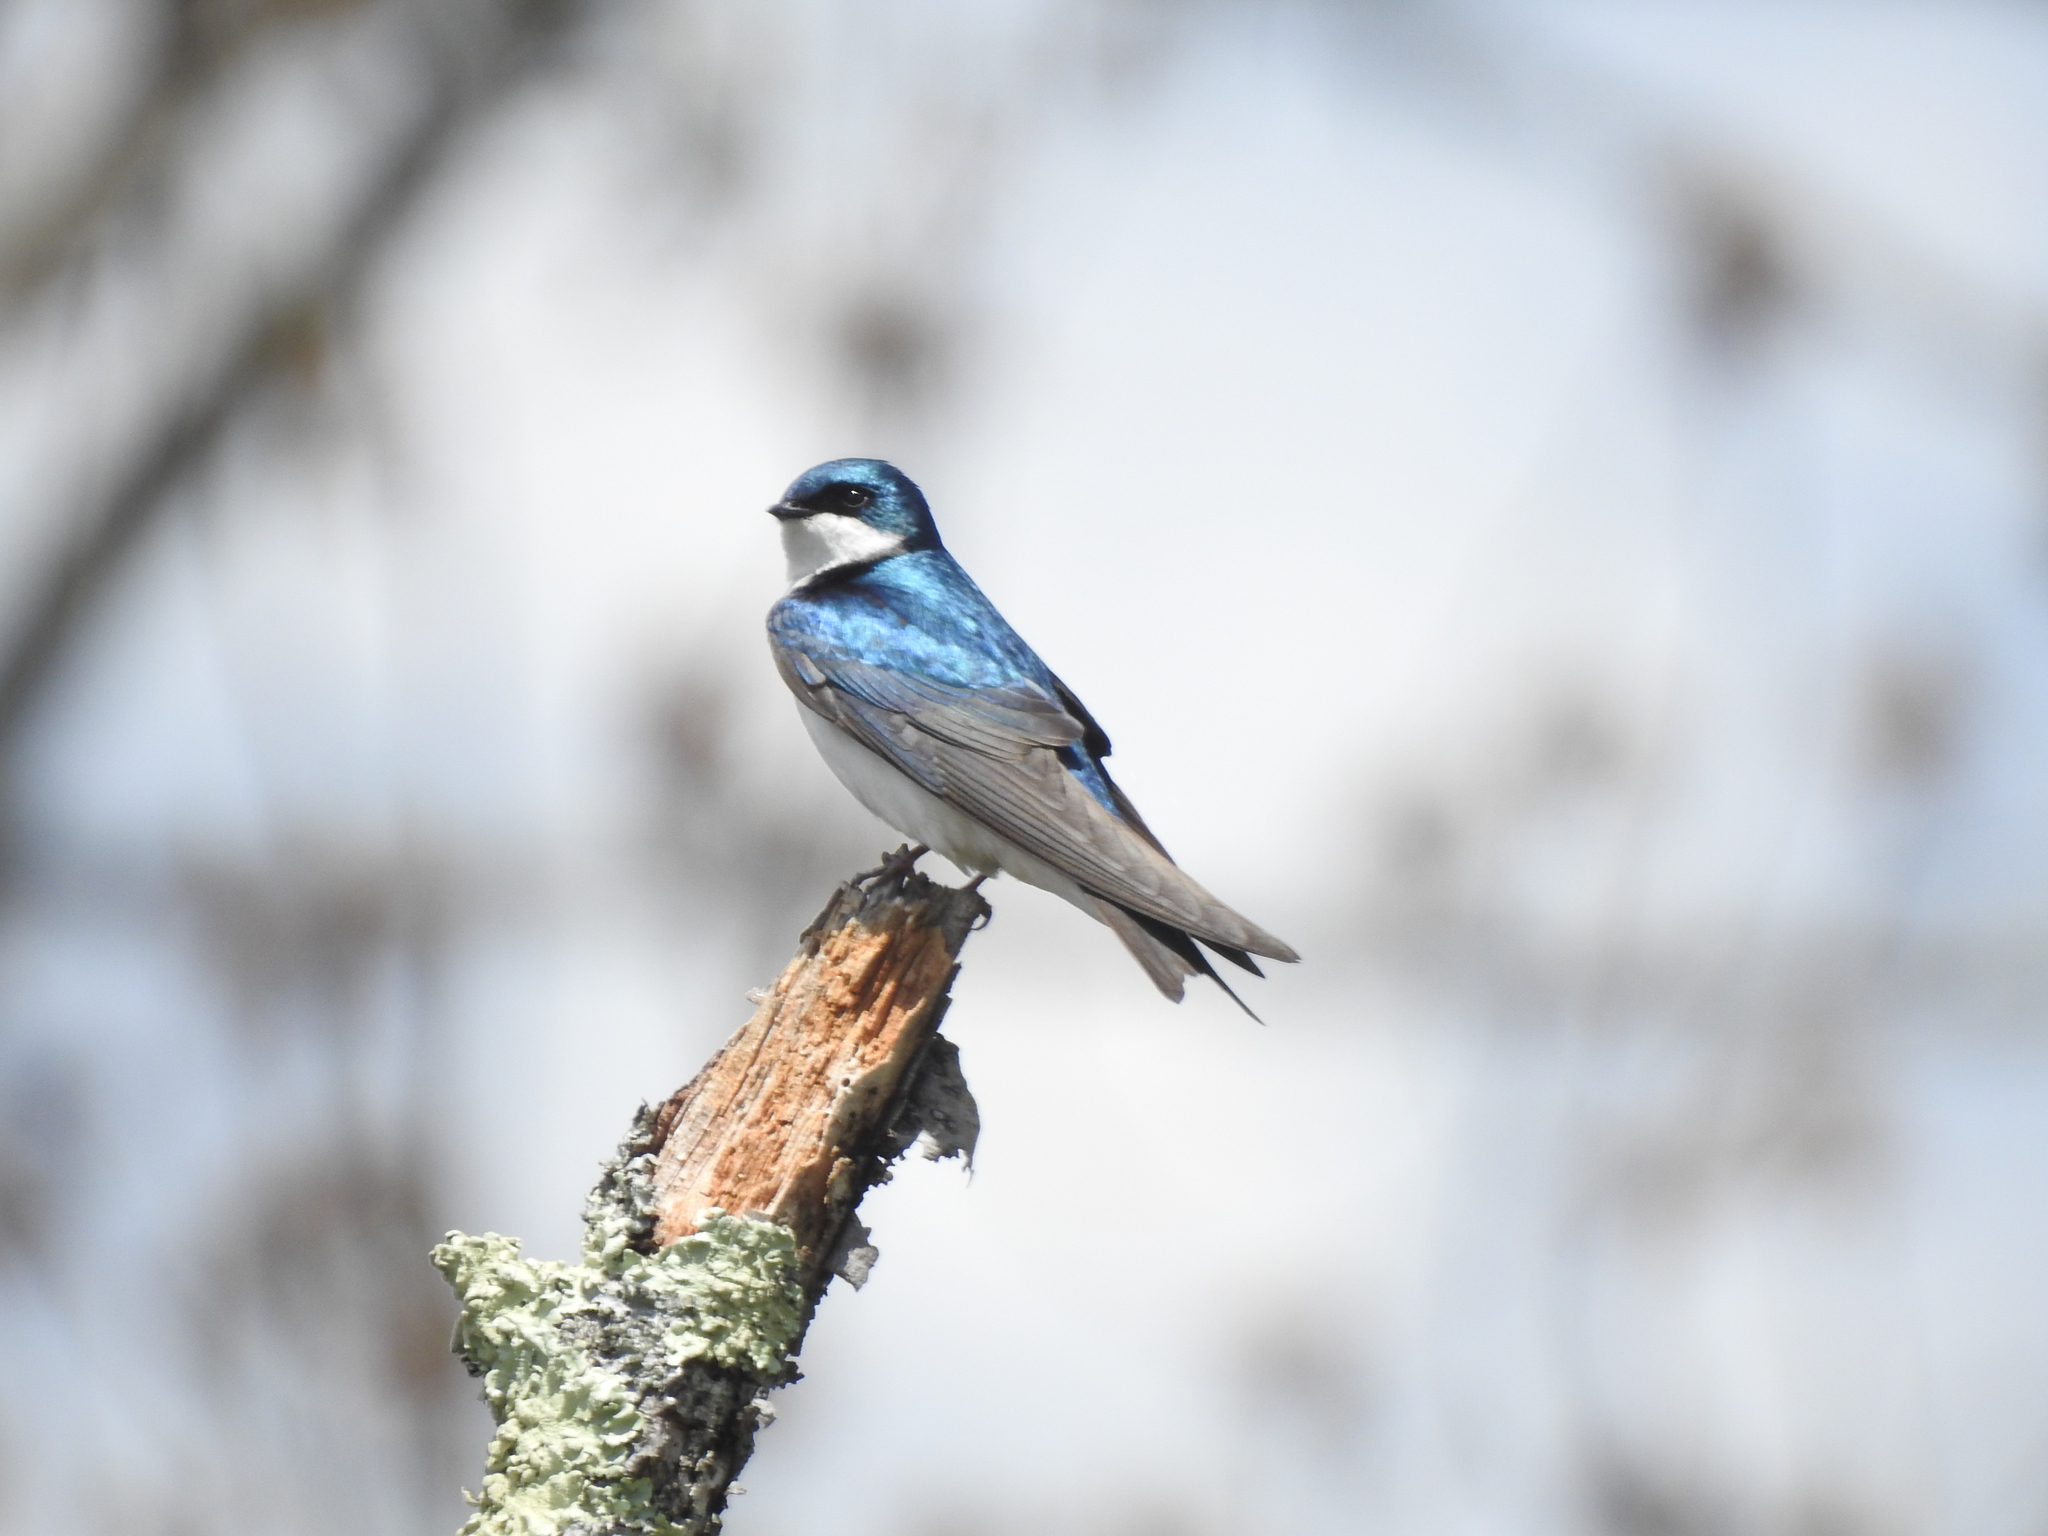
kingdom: Animalia
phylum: Chordata
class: Aves
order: Passeriformes
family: Hirundinidae
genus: Tachycineta
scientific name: Tachycineta bicolor
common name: Tree swallow
